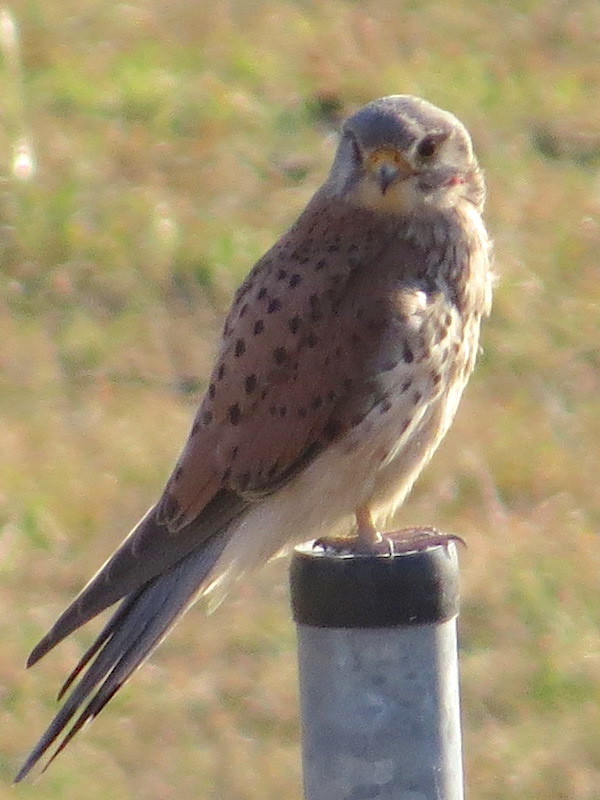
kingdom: Animalia
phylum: Chordata
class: Aves
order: Falconiformes
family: Falconidae
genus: Falco
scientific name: Falco tinnunculus
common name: Common kestrel
